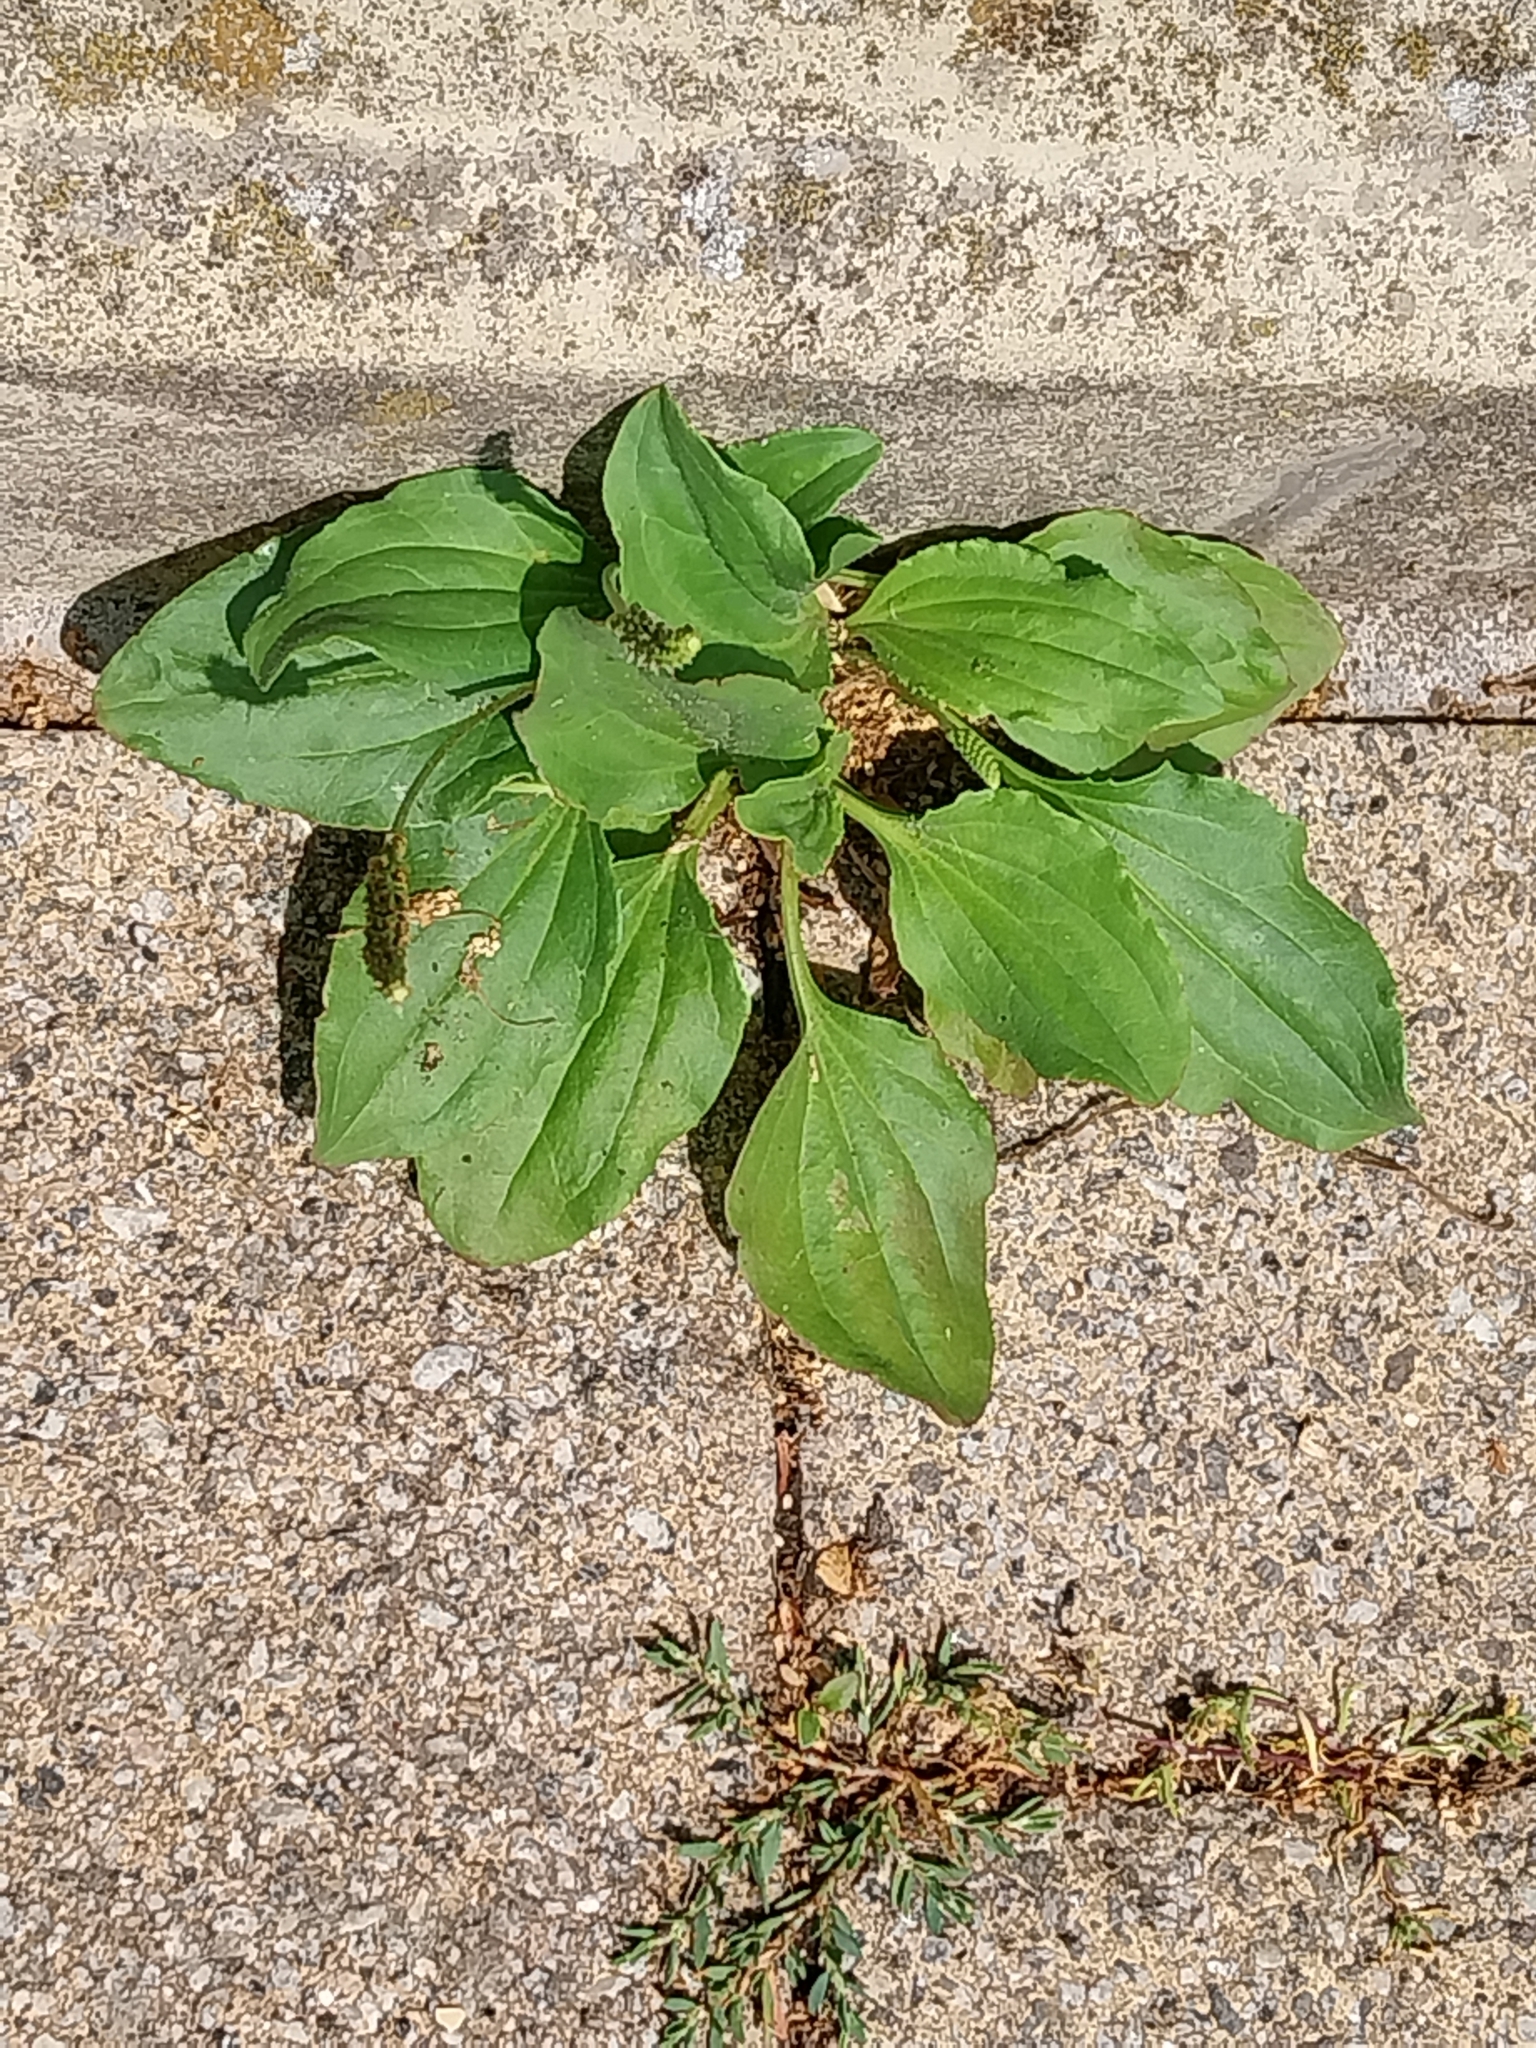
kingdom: Plantae
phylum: Tracheophyta
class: Magnoliopsida
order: Lamiales
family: Plantaginaceae
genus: Plantago
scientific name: Plantago major
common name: Common plantain
